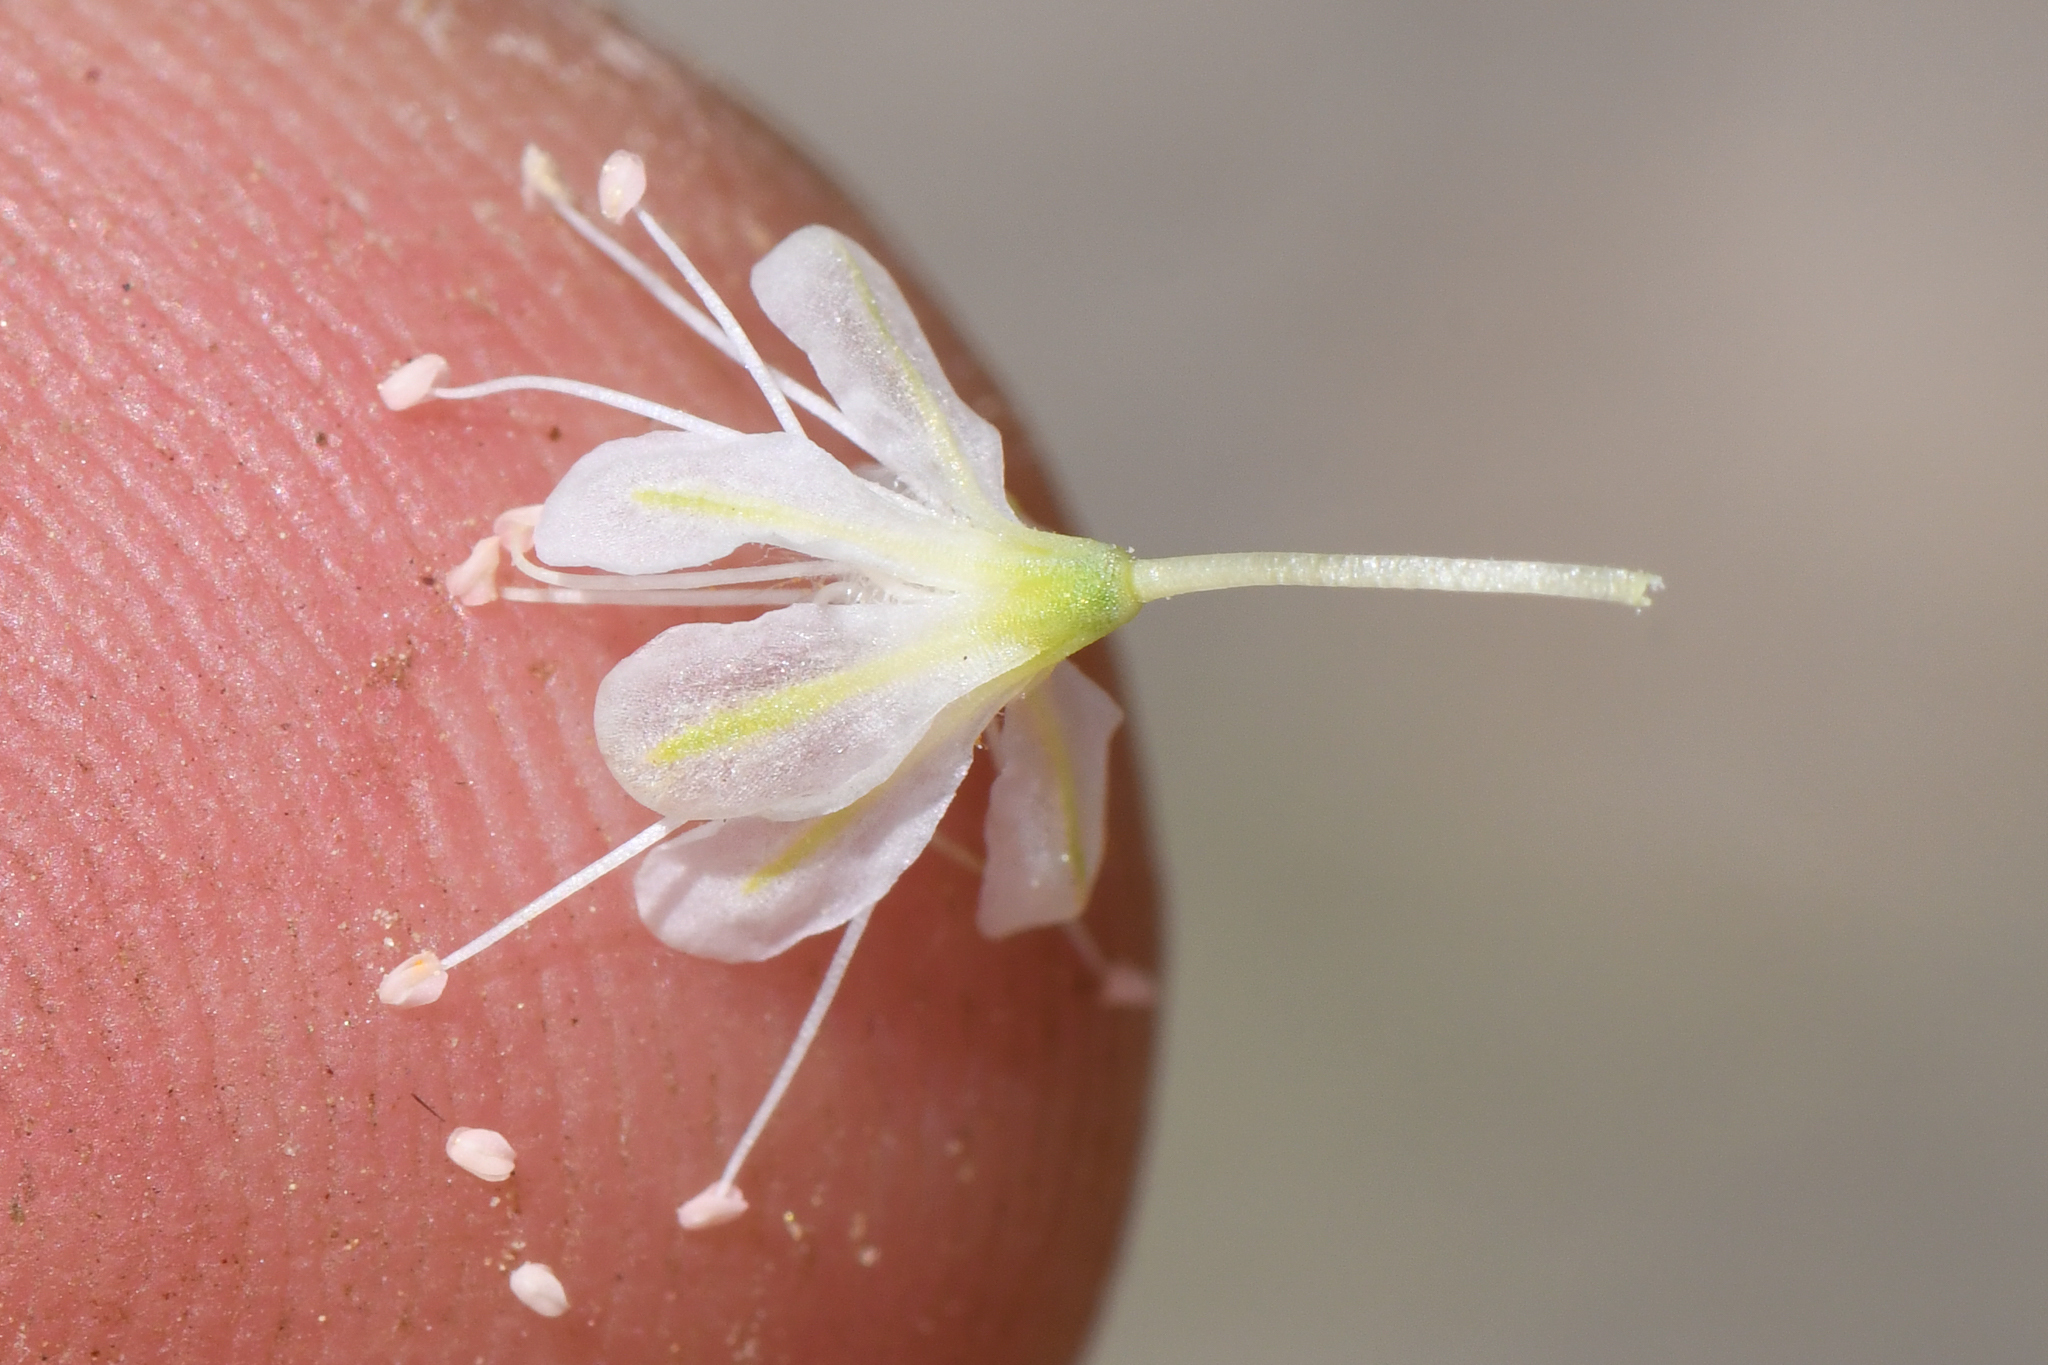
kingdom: Plantae
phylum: Tracheophyta
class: Magnoliopsida
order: Caryophyllales
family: Polygonaceae
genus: Eriogonum
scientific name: Eriogonum mensicola
